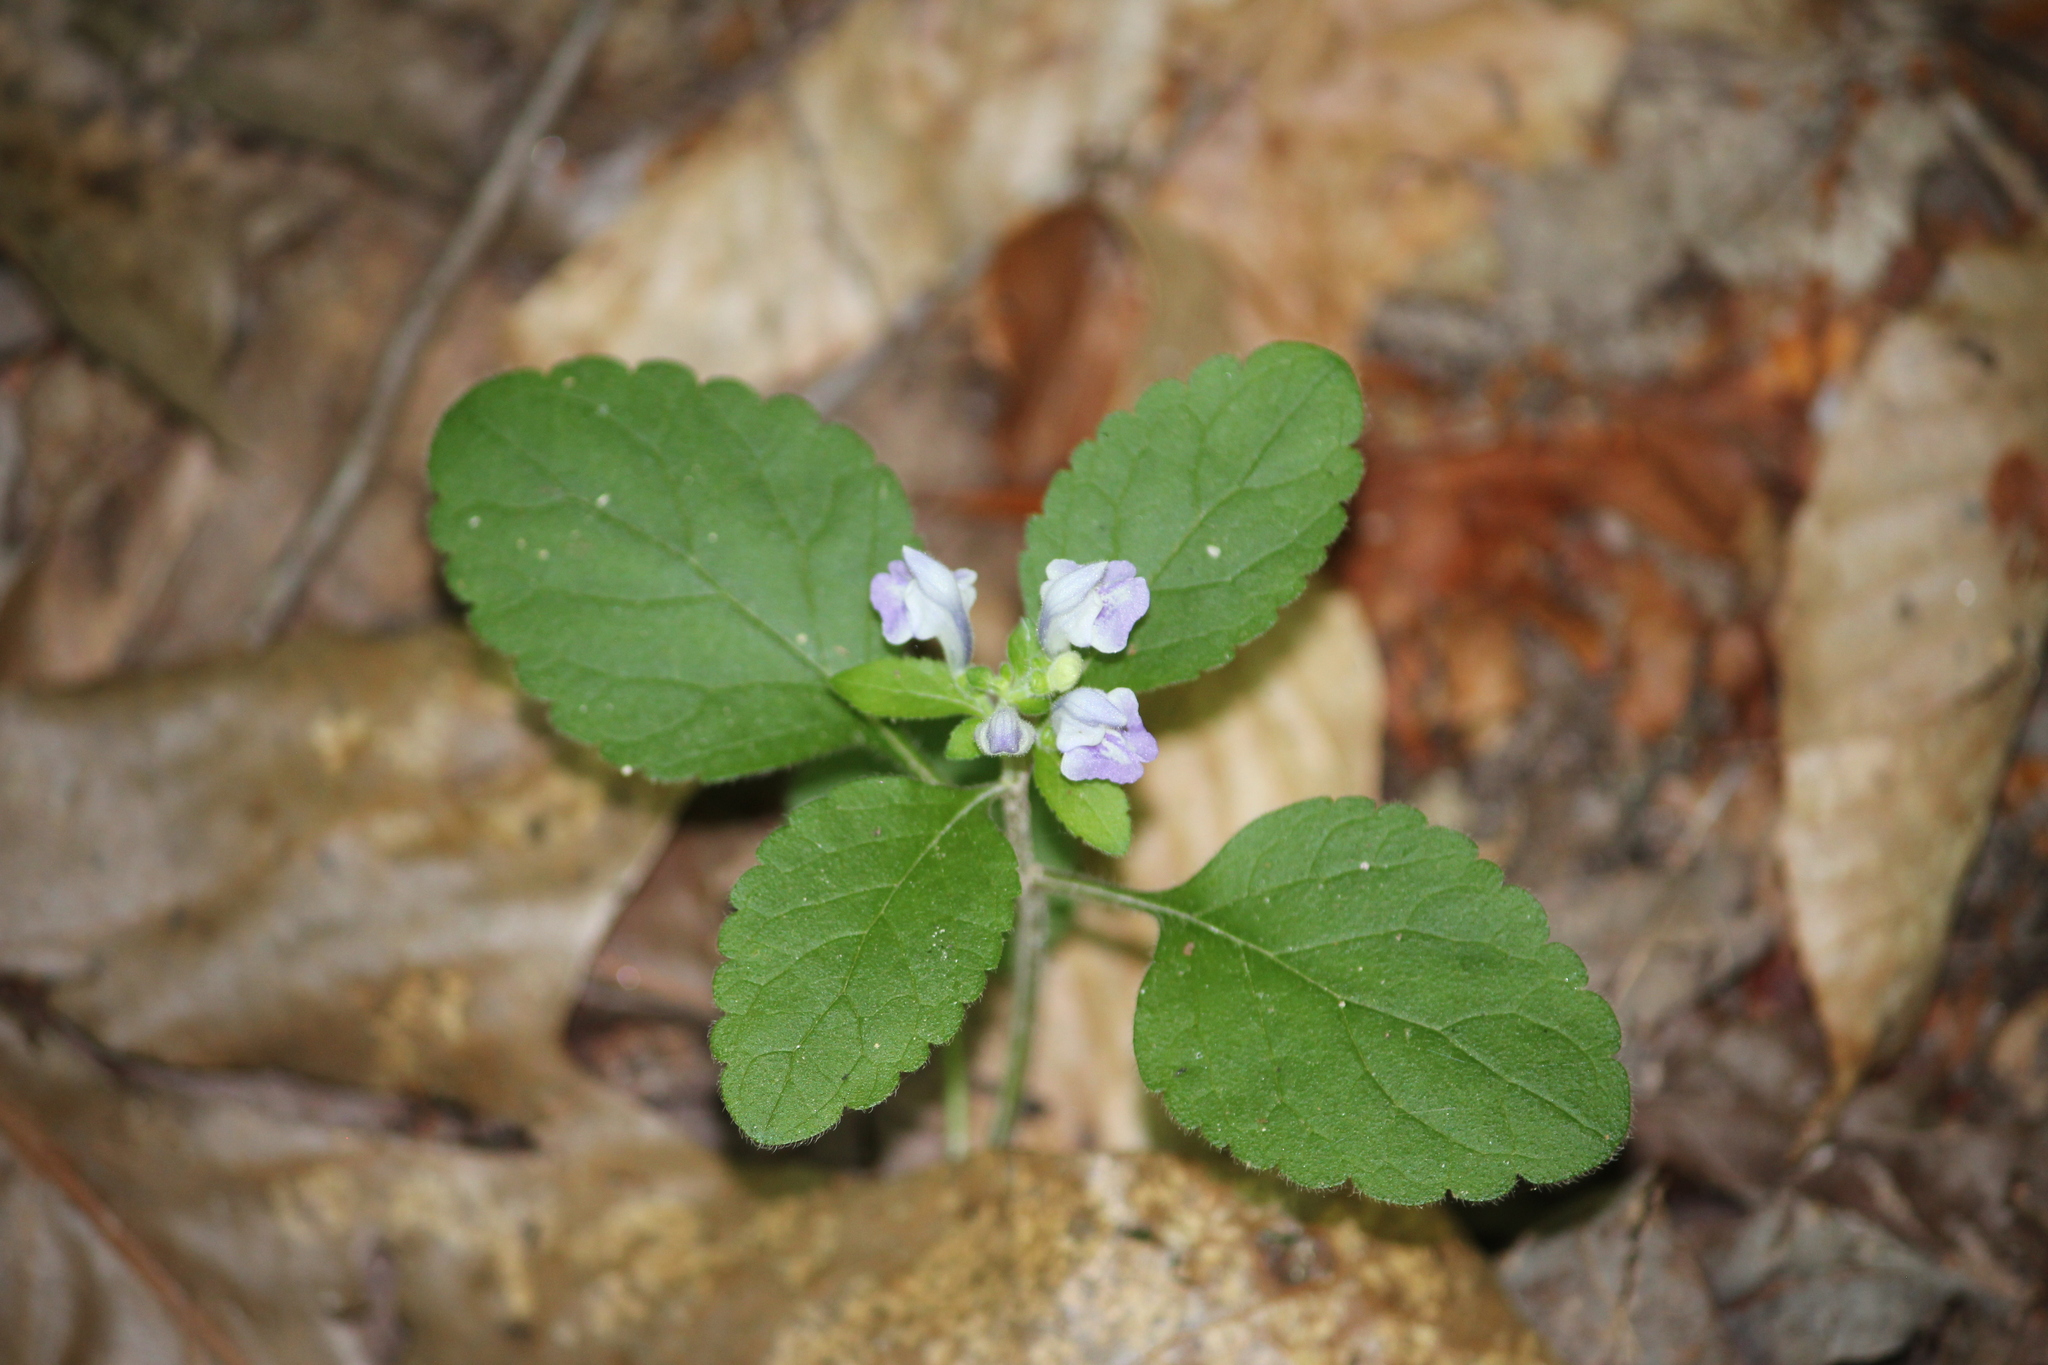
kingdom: Plantae
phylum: Tracheophyta
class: Magnoliopsida
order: Lamiales
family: Lamiaceae
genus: Scutellaria
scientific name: Scutellaria elliptica
